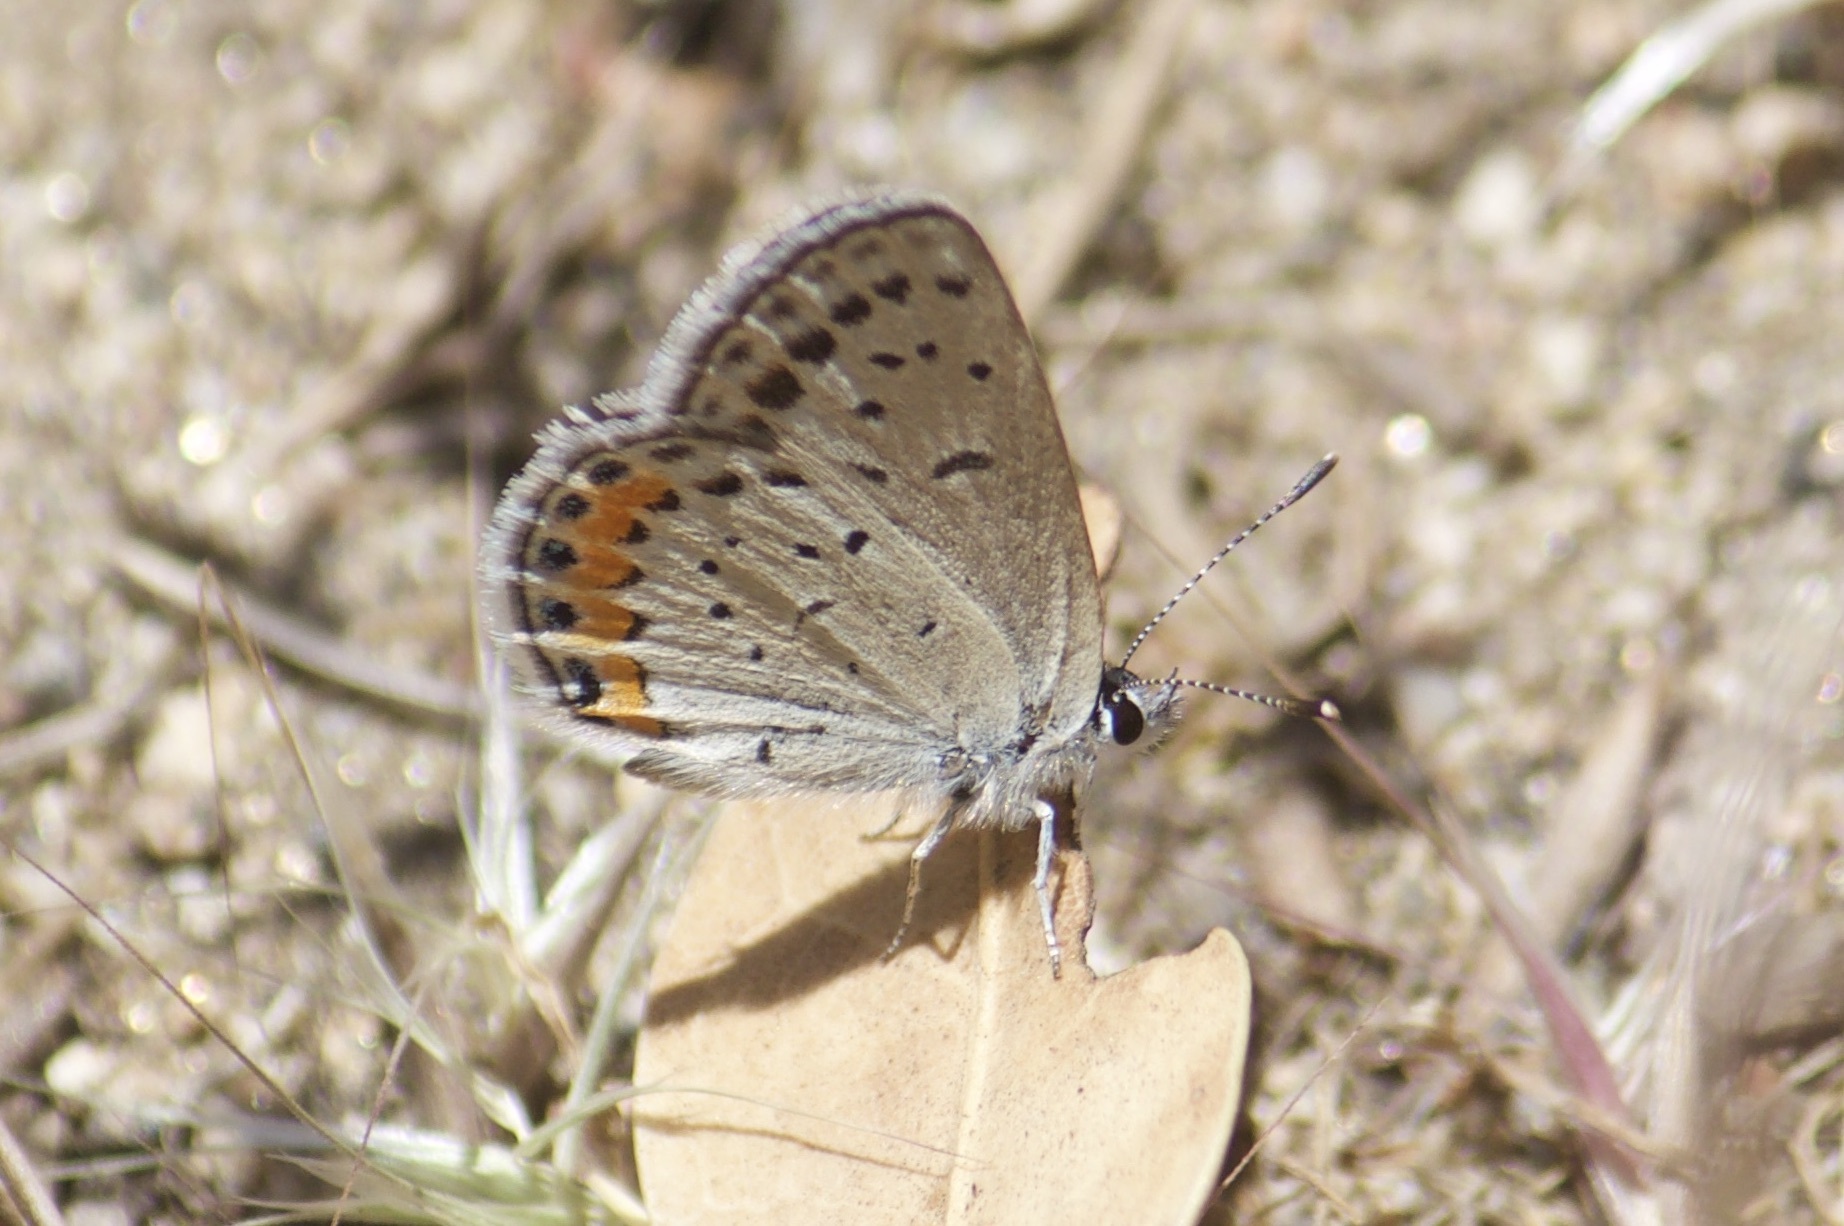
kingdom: Animalia
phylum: Arthropoda
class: Insecta
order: Lepidoptera
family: Lycaenidae
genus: Icaricia
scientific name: Icaricia acmon
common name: Acmon blue
